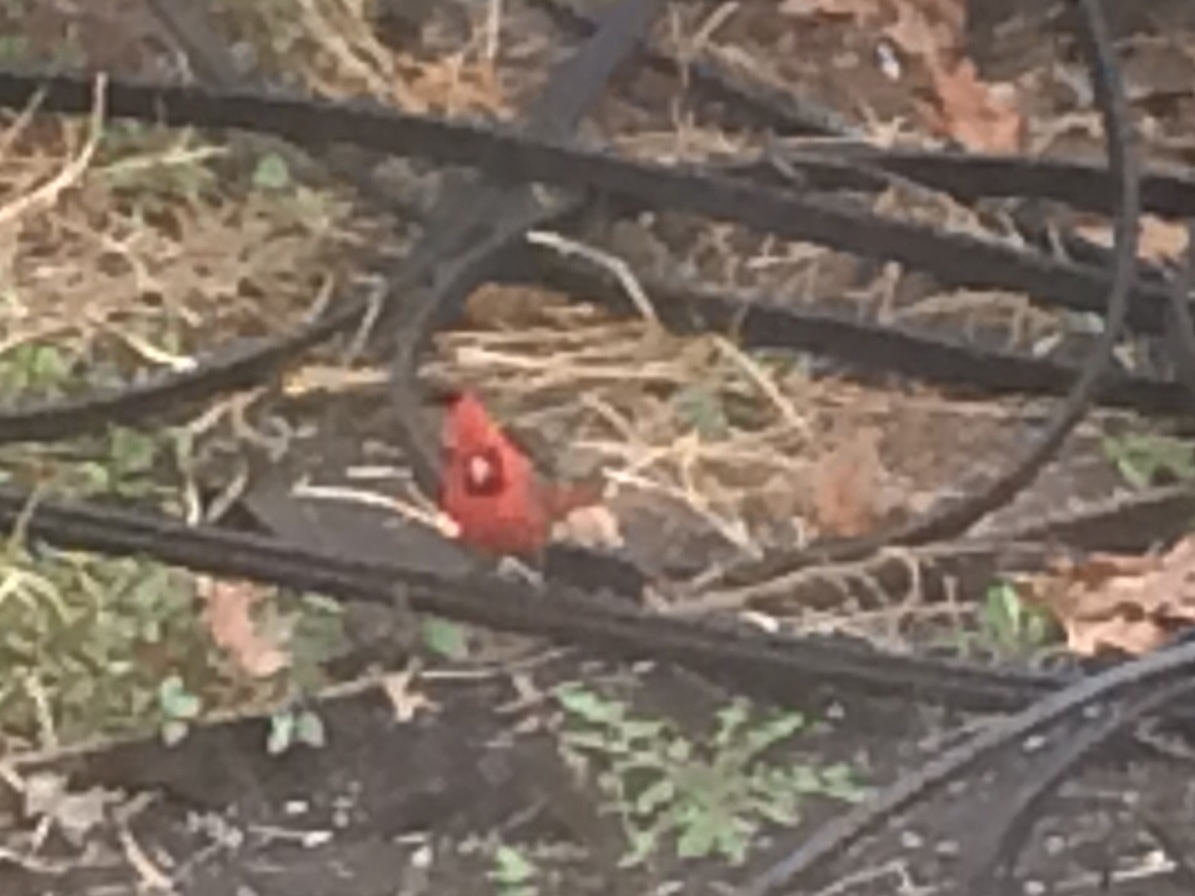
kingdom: Animalia
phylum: Chordata
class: Aves
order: Passeriformes
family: Cardinalidae
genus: Cardinalis
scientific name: Cardinalis cardinalis
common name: Northern cardinal
